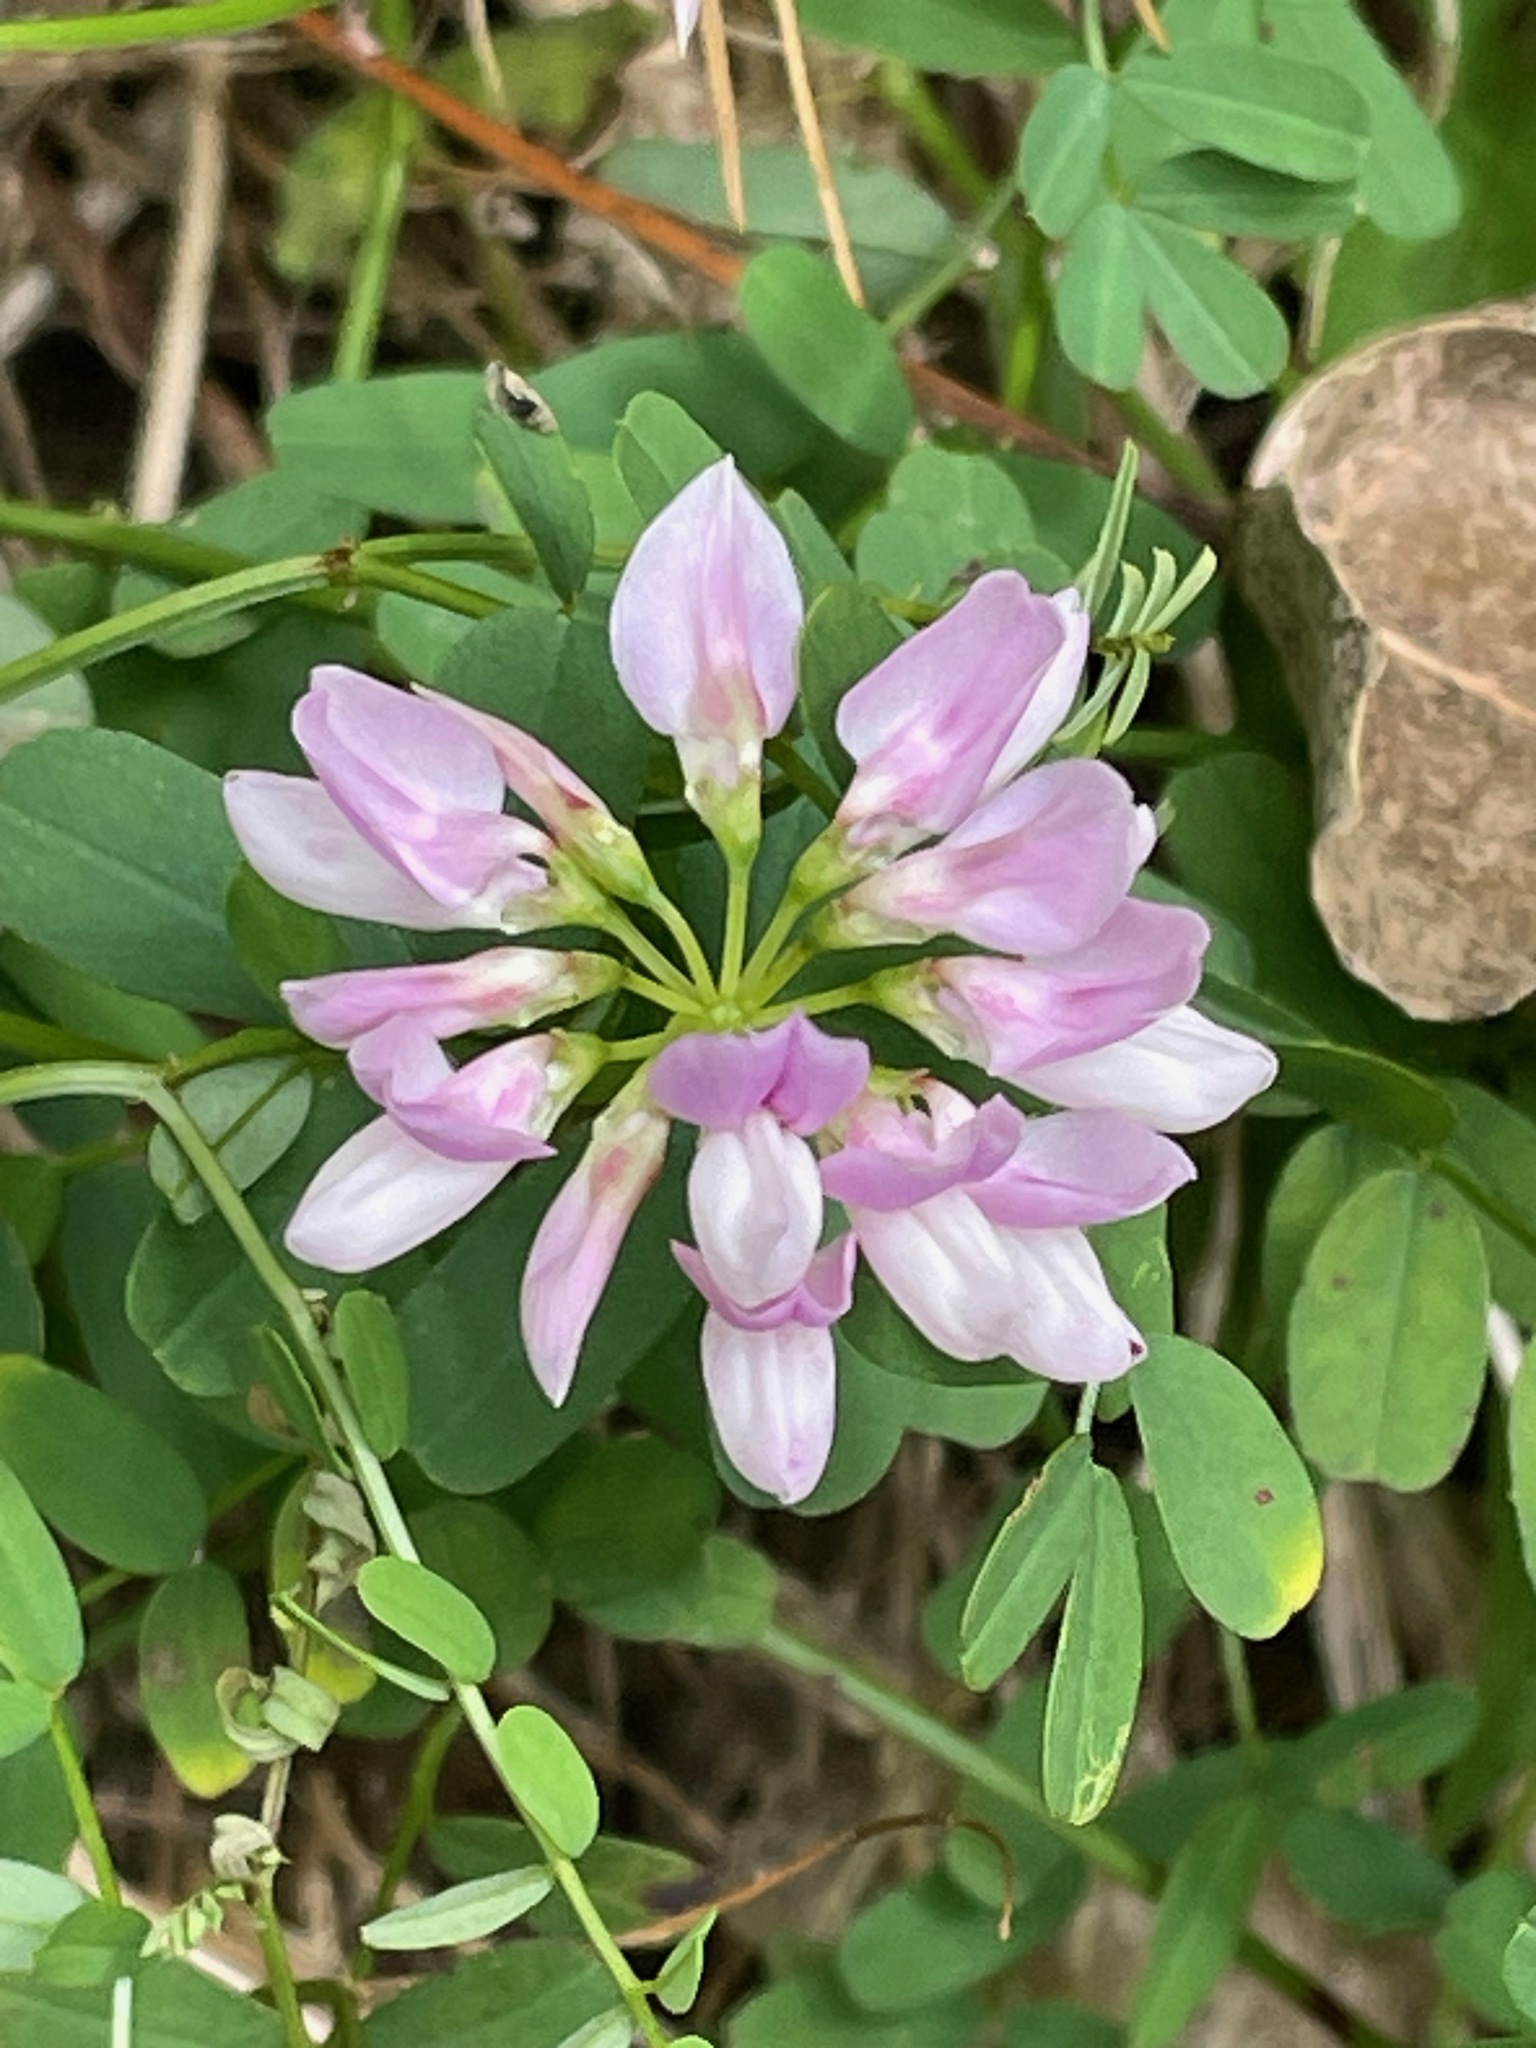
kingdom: Plantae
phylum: Tracheophyta
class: Magnoliopsida
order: Fabales
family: Fabaceae
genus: Coronilla
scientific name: Coronilla varia
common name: Crownvetch
